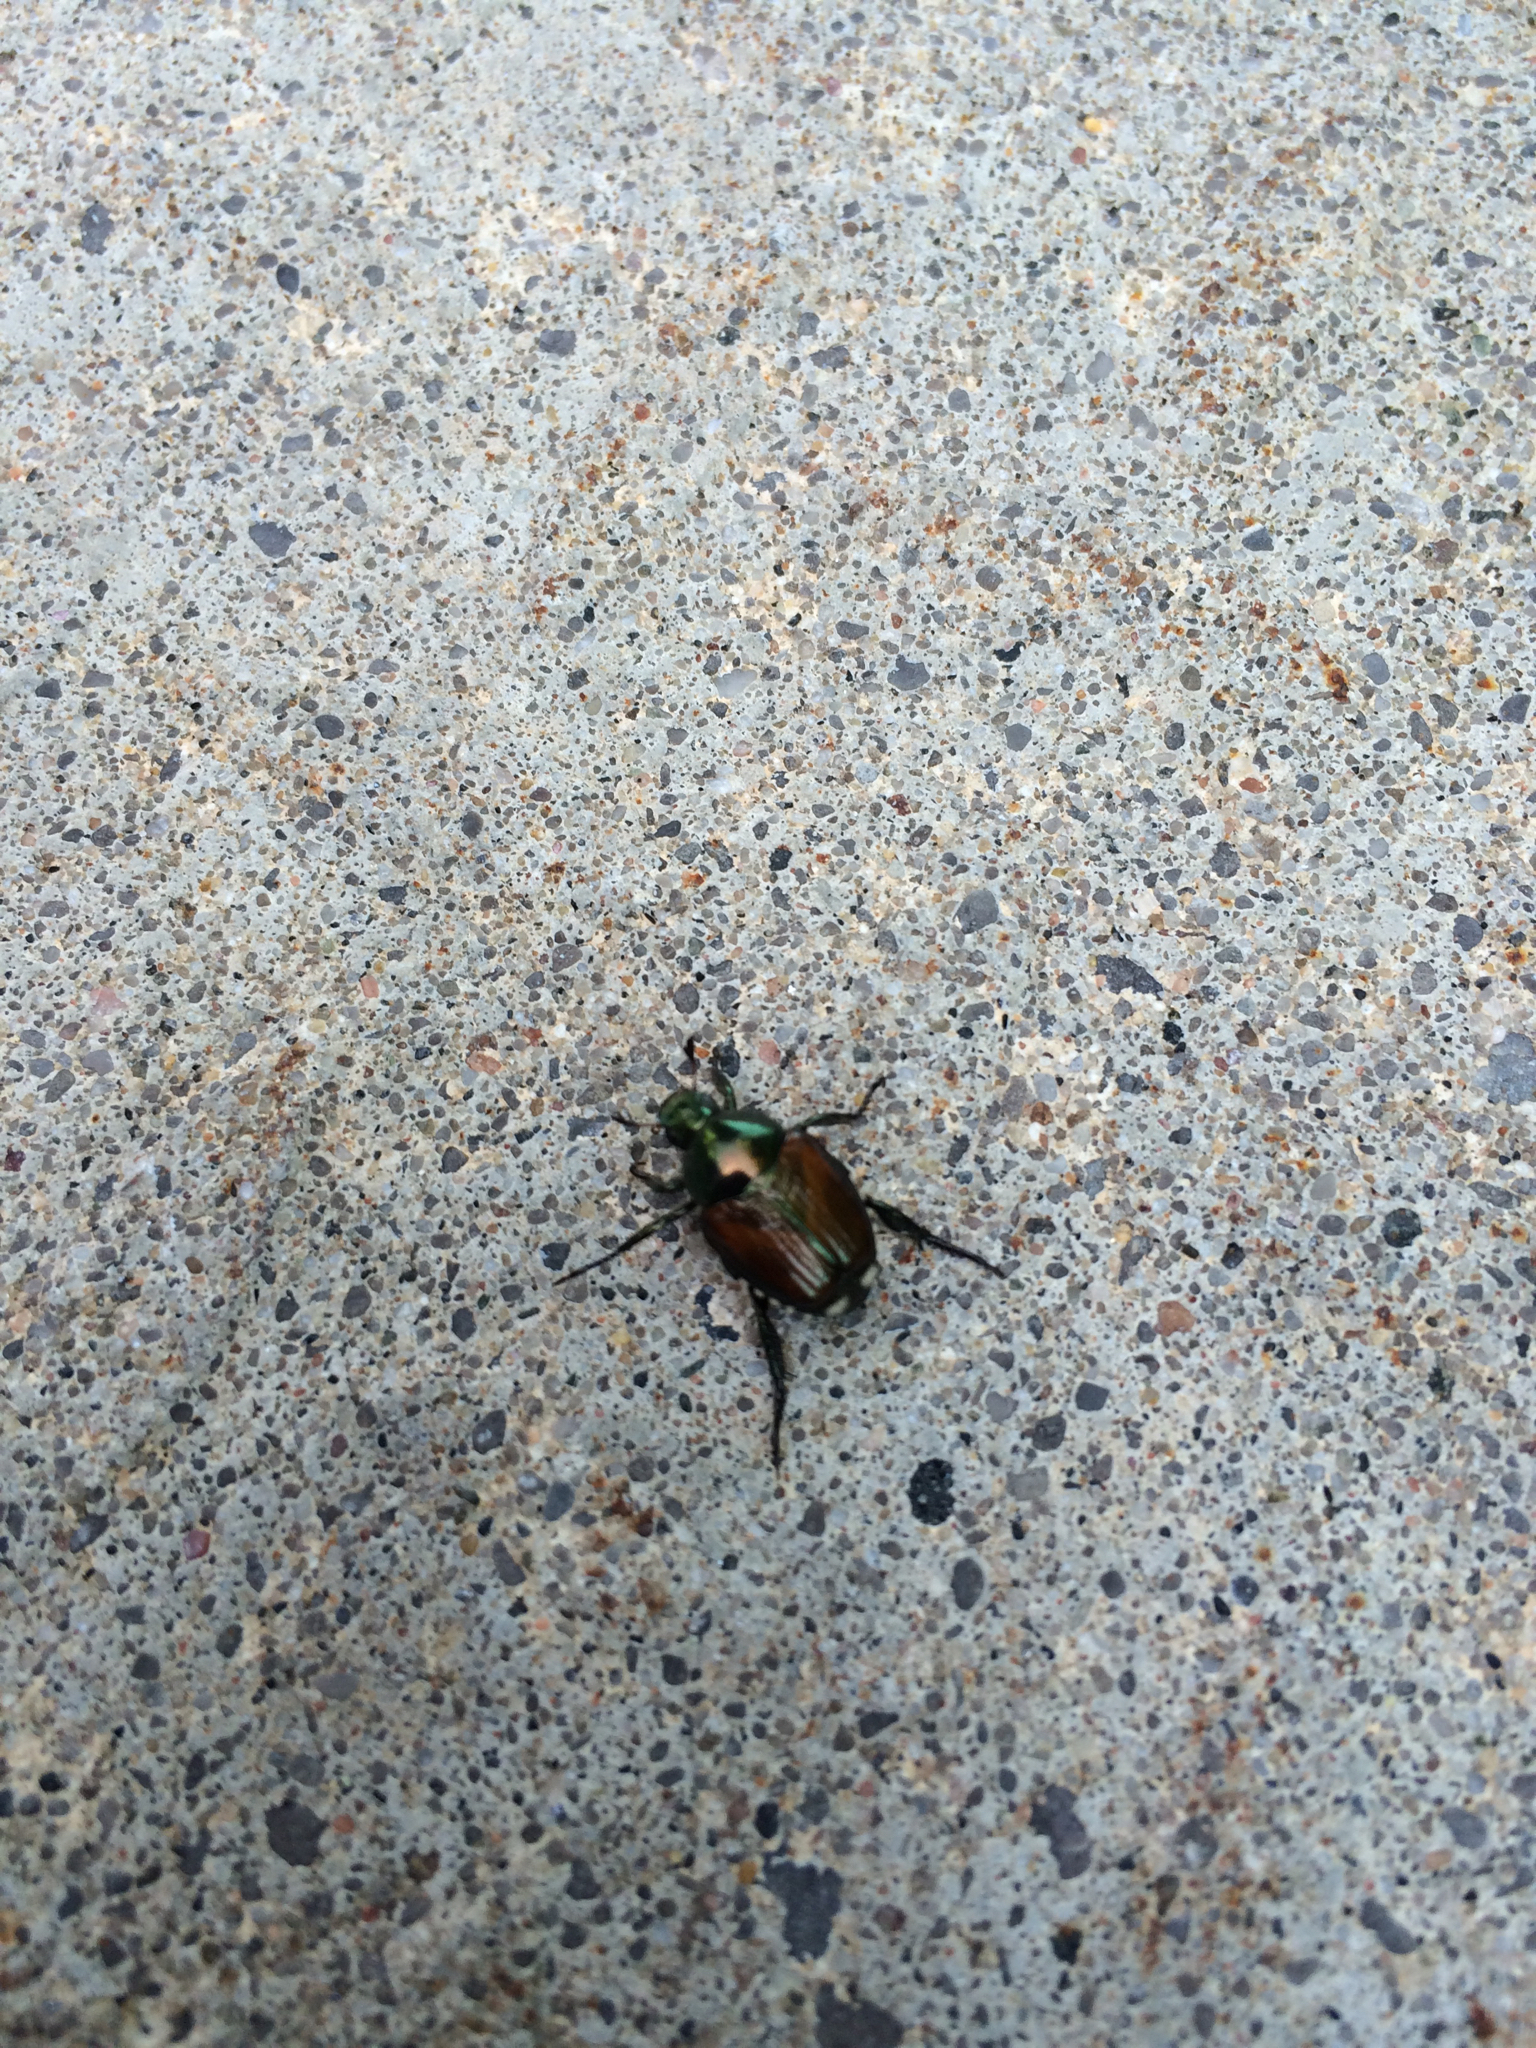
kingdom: Animalia
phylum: Arthropoda
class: Insecta
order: Coleoptera
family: Scarabaeidae
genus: Popillia
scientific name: Popillia japonica
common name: Japanese beetle
